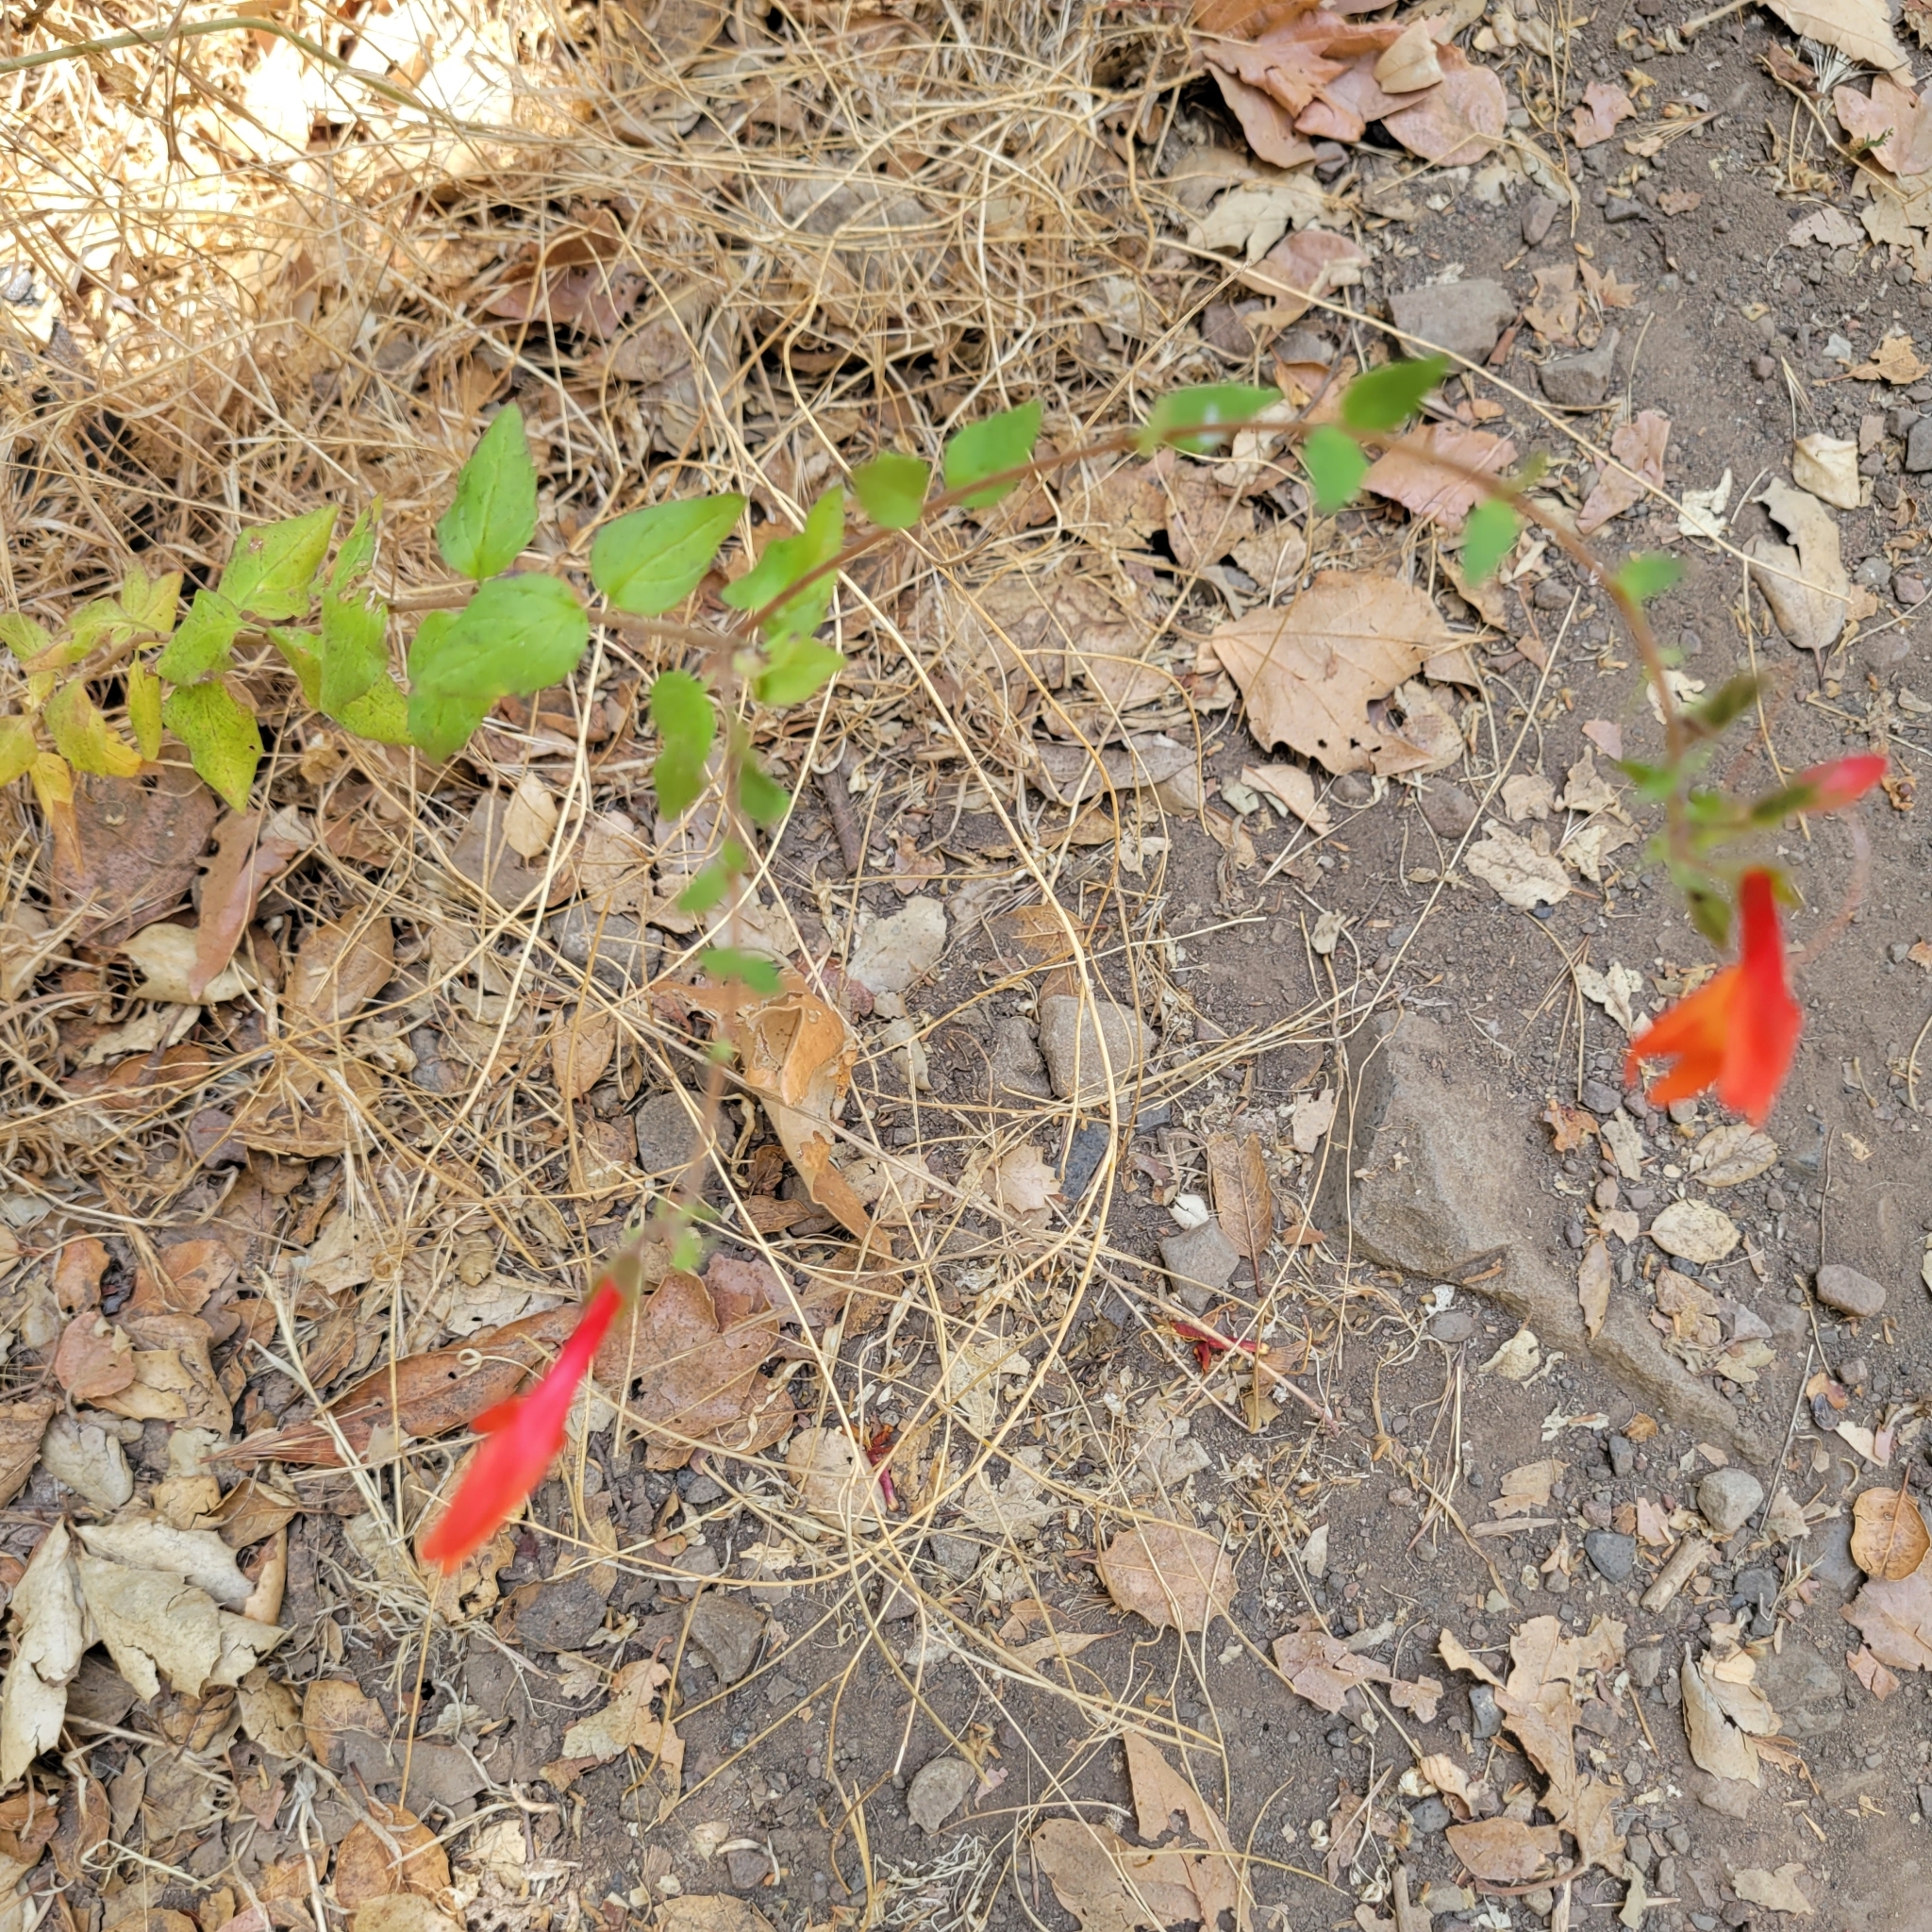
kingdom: Plantae
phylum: Tracheophyta
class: Magnoliopsida
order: Lamiales
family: Plantaginaceae
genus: Keckiella
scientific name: Keckiella cordifolia
